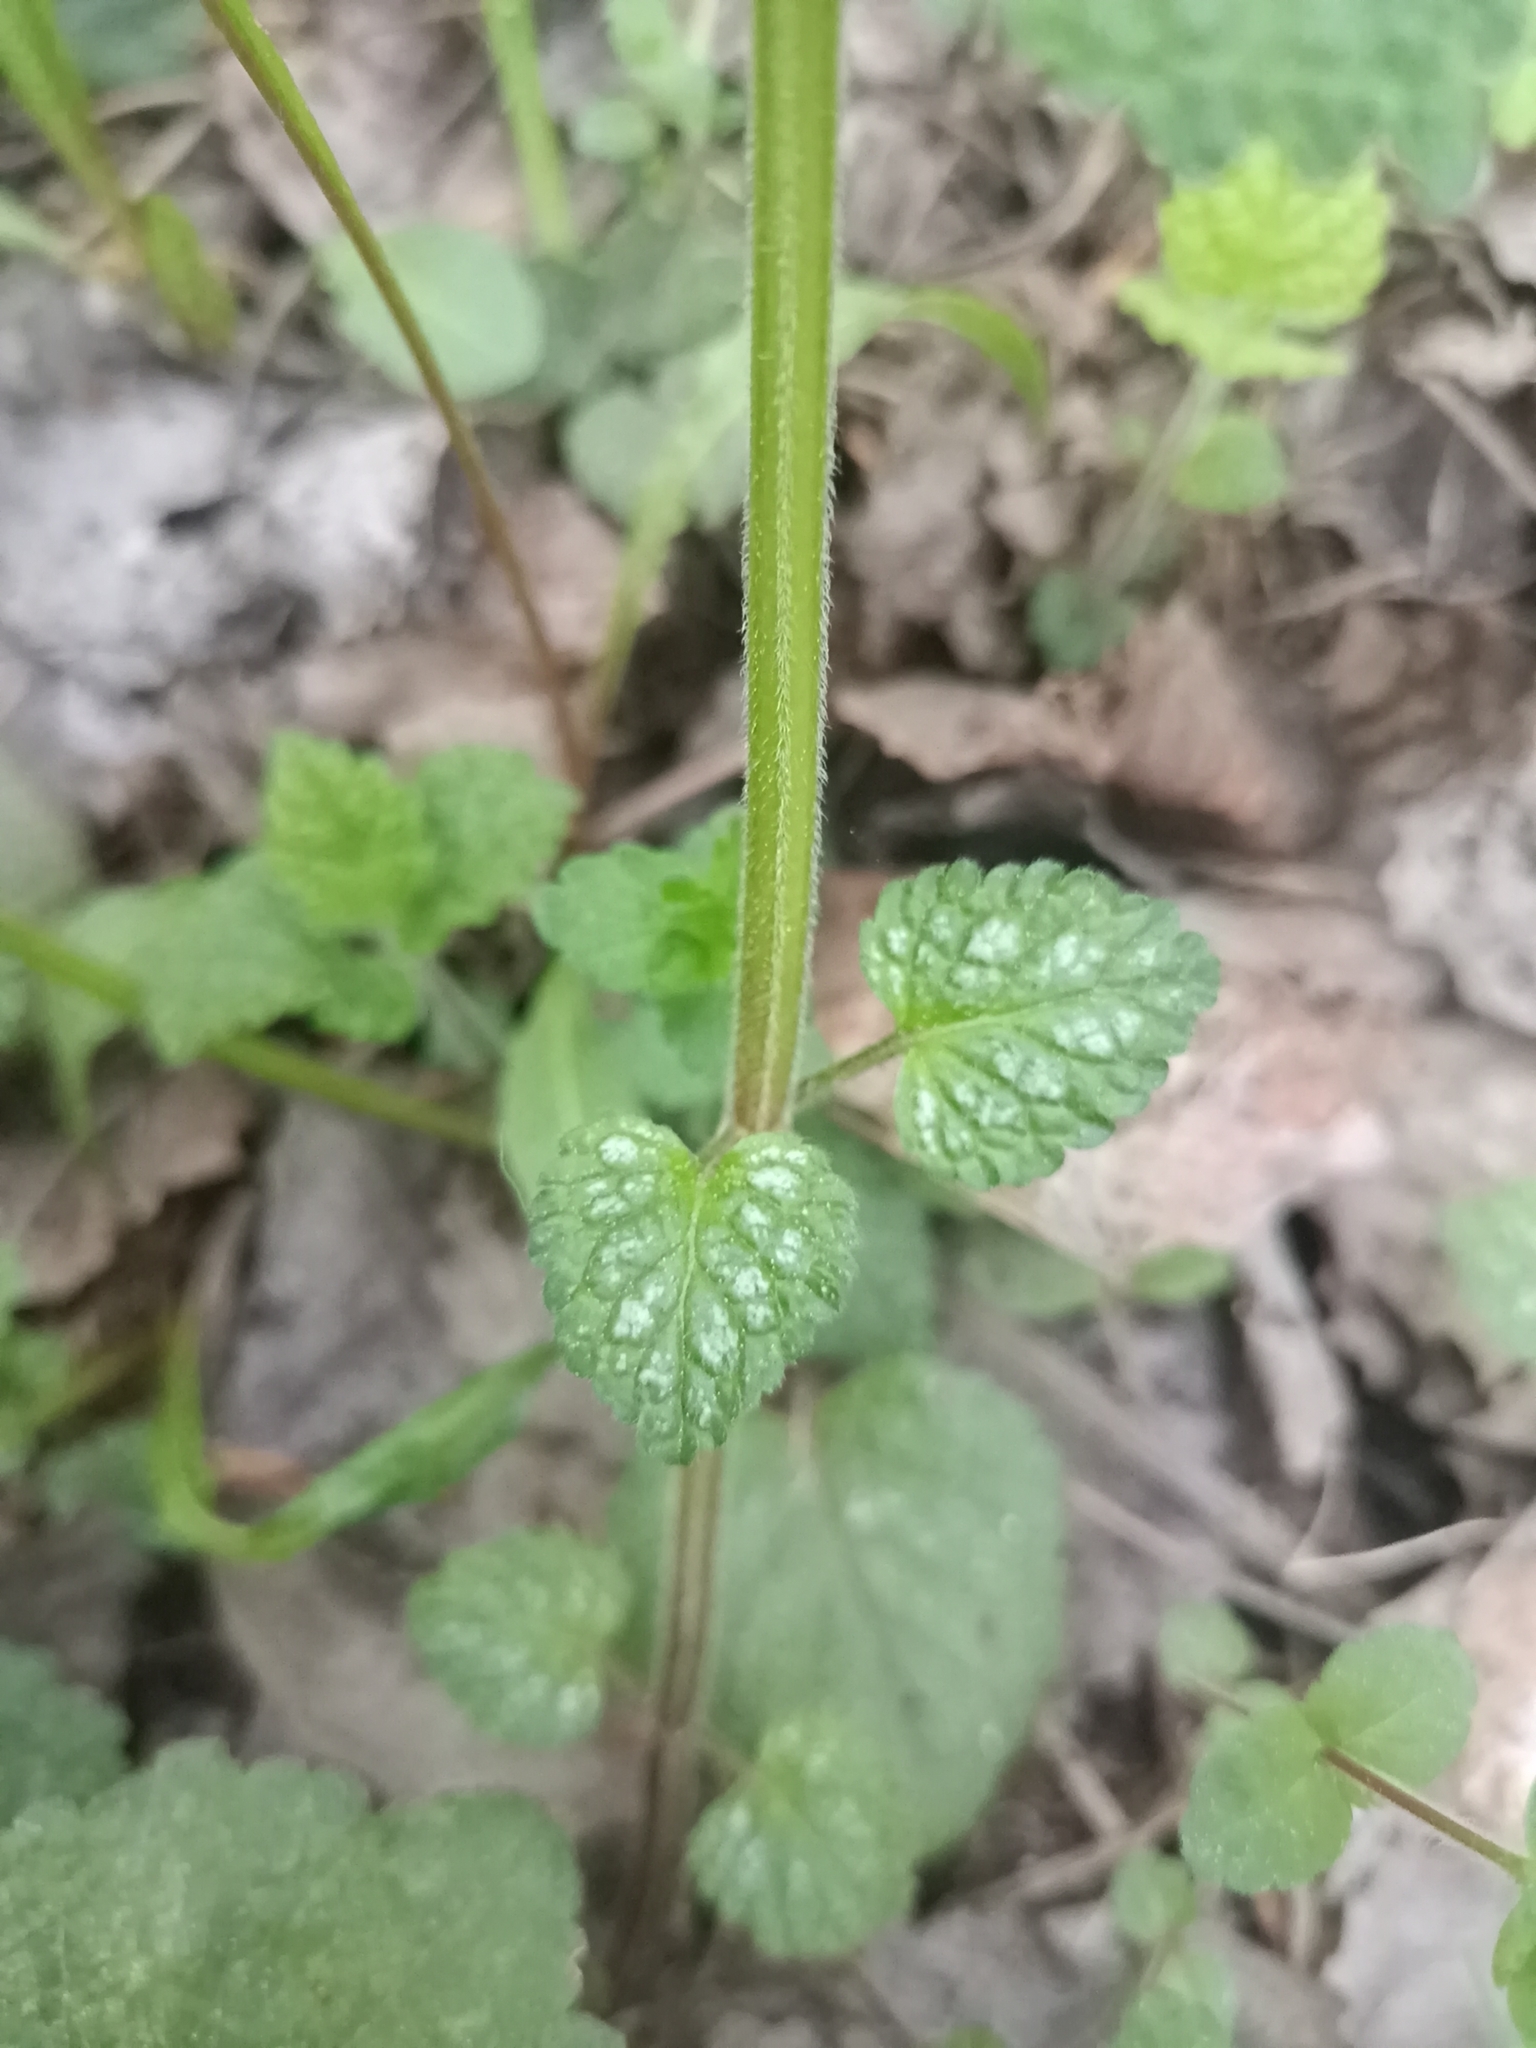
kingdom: Plantae
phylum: Tracheophyta
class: Magnoliopsida
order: Lamiales
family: Lamiaceae
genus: Lamium
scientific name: Lamium galeobdolon
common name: Yellow archangel
